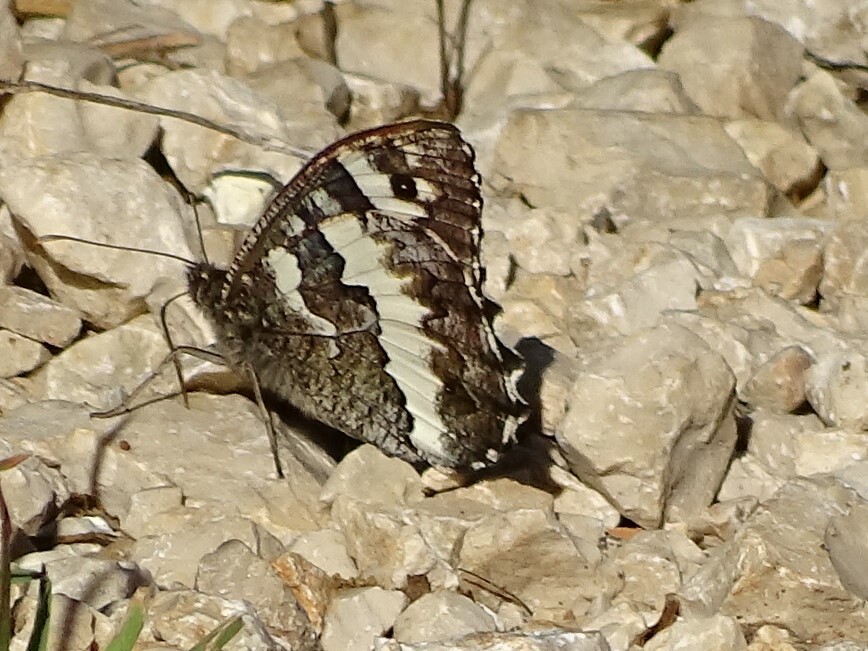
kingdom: Animalia
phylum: Arthropoda
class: Insecta
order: Lepidoptera
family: Lycaenidae
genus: Loweia
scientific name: Loweia tityrus
